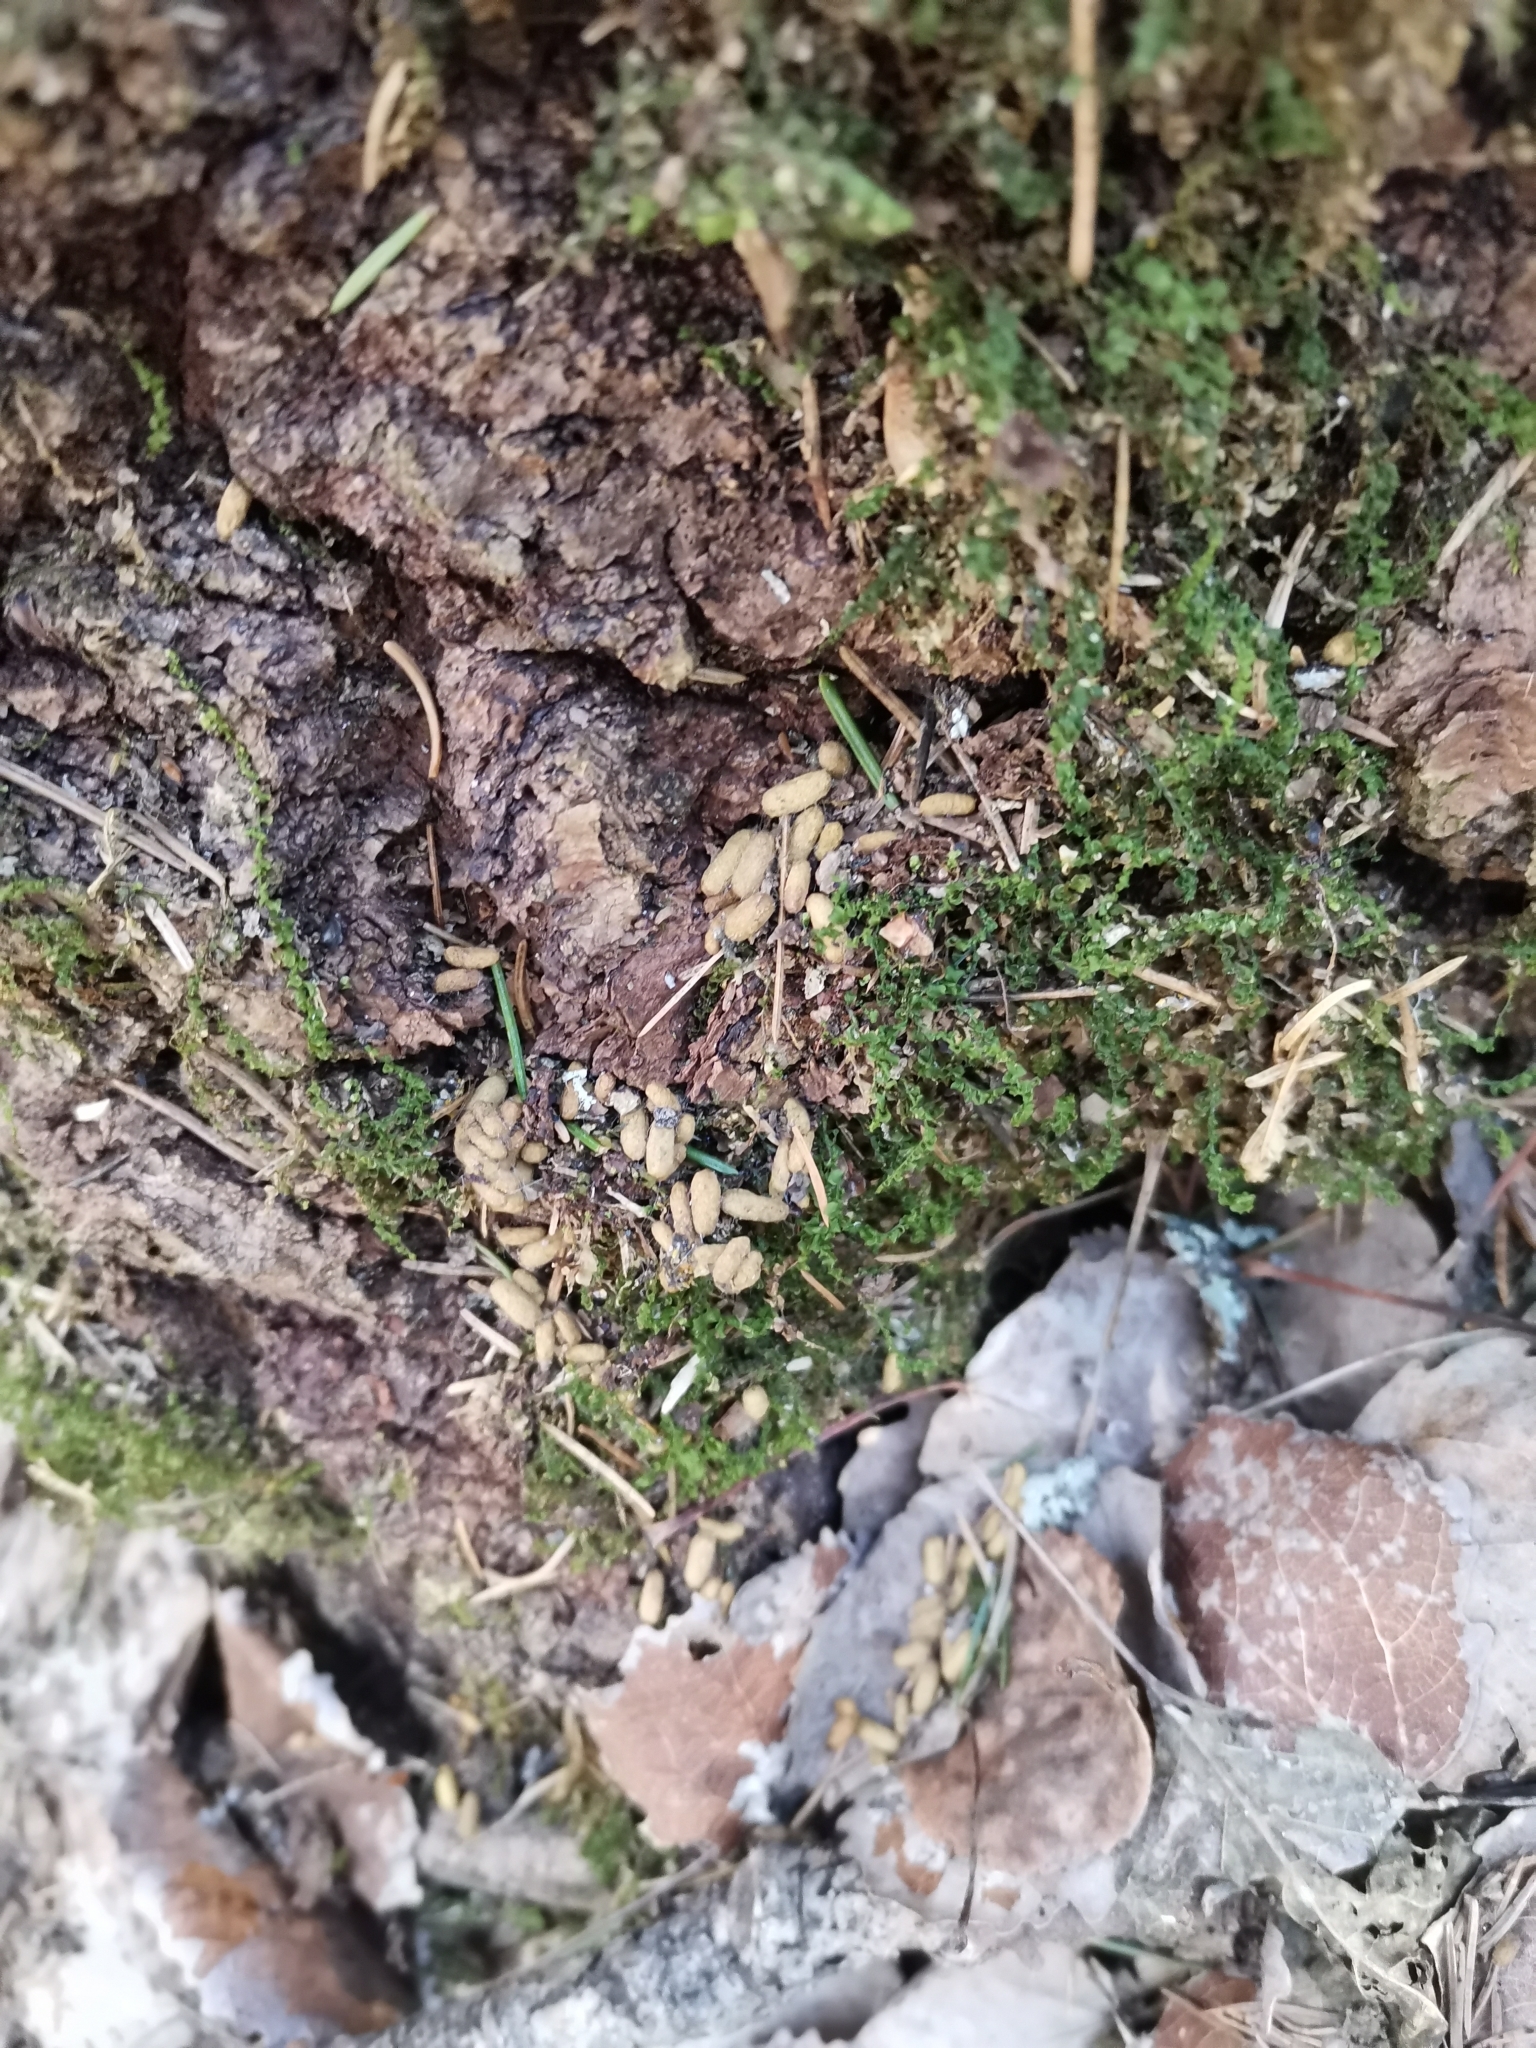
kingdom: Animalia
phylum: Chordata
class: Mammalia
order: Rodentia
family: Sciuridae
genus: Pteromys
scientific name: Pteromys volans
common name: Siberian flying squirrel
